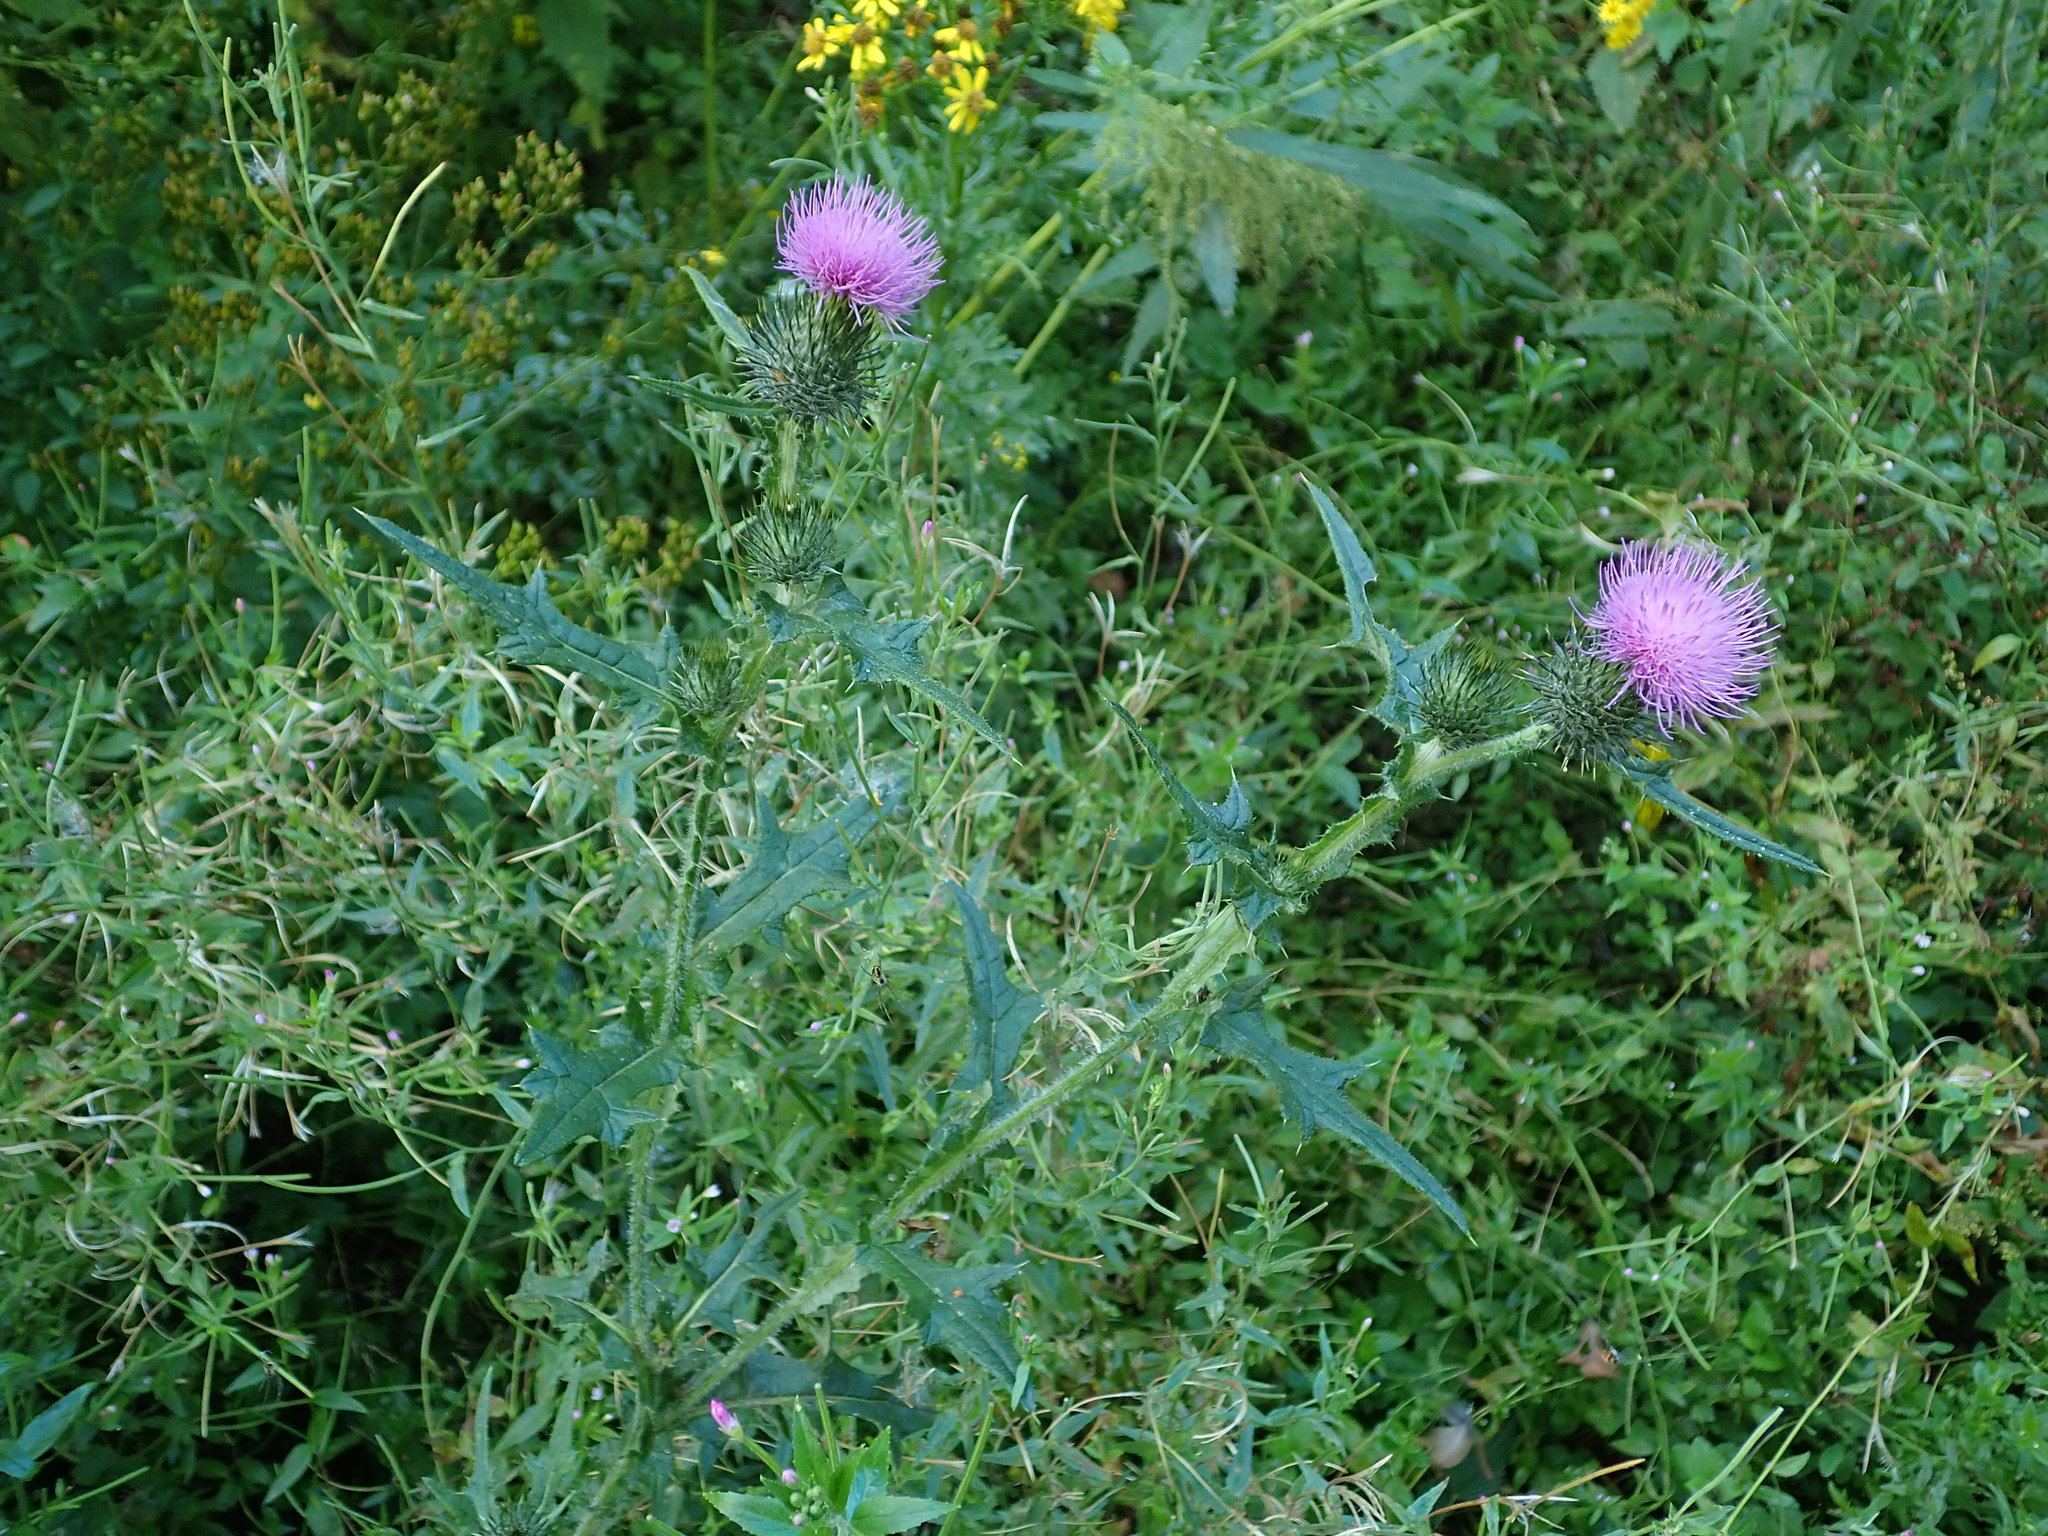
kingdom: Plantae
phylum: Tracheophyta
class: Magnoliopsida
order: Asterales
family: Asteraceae
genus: Cirsium
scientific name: Cirsium vulgare
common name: Bull thistle
